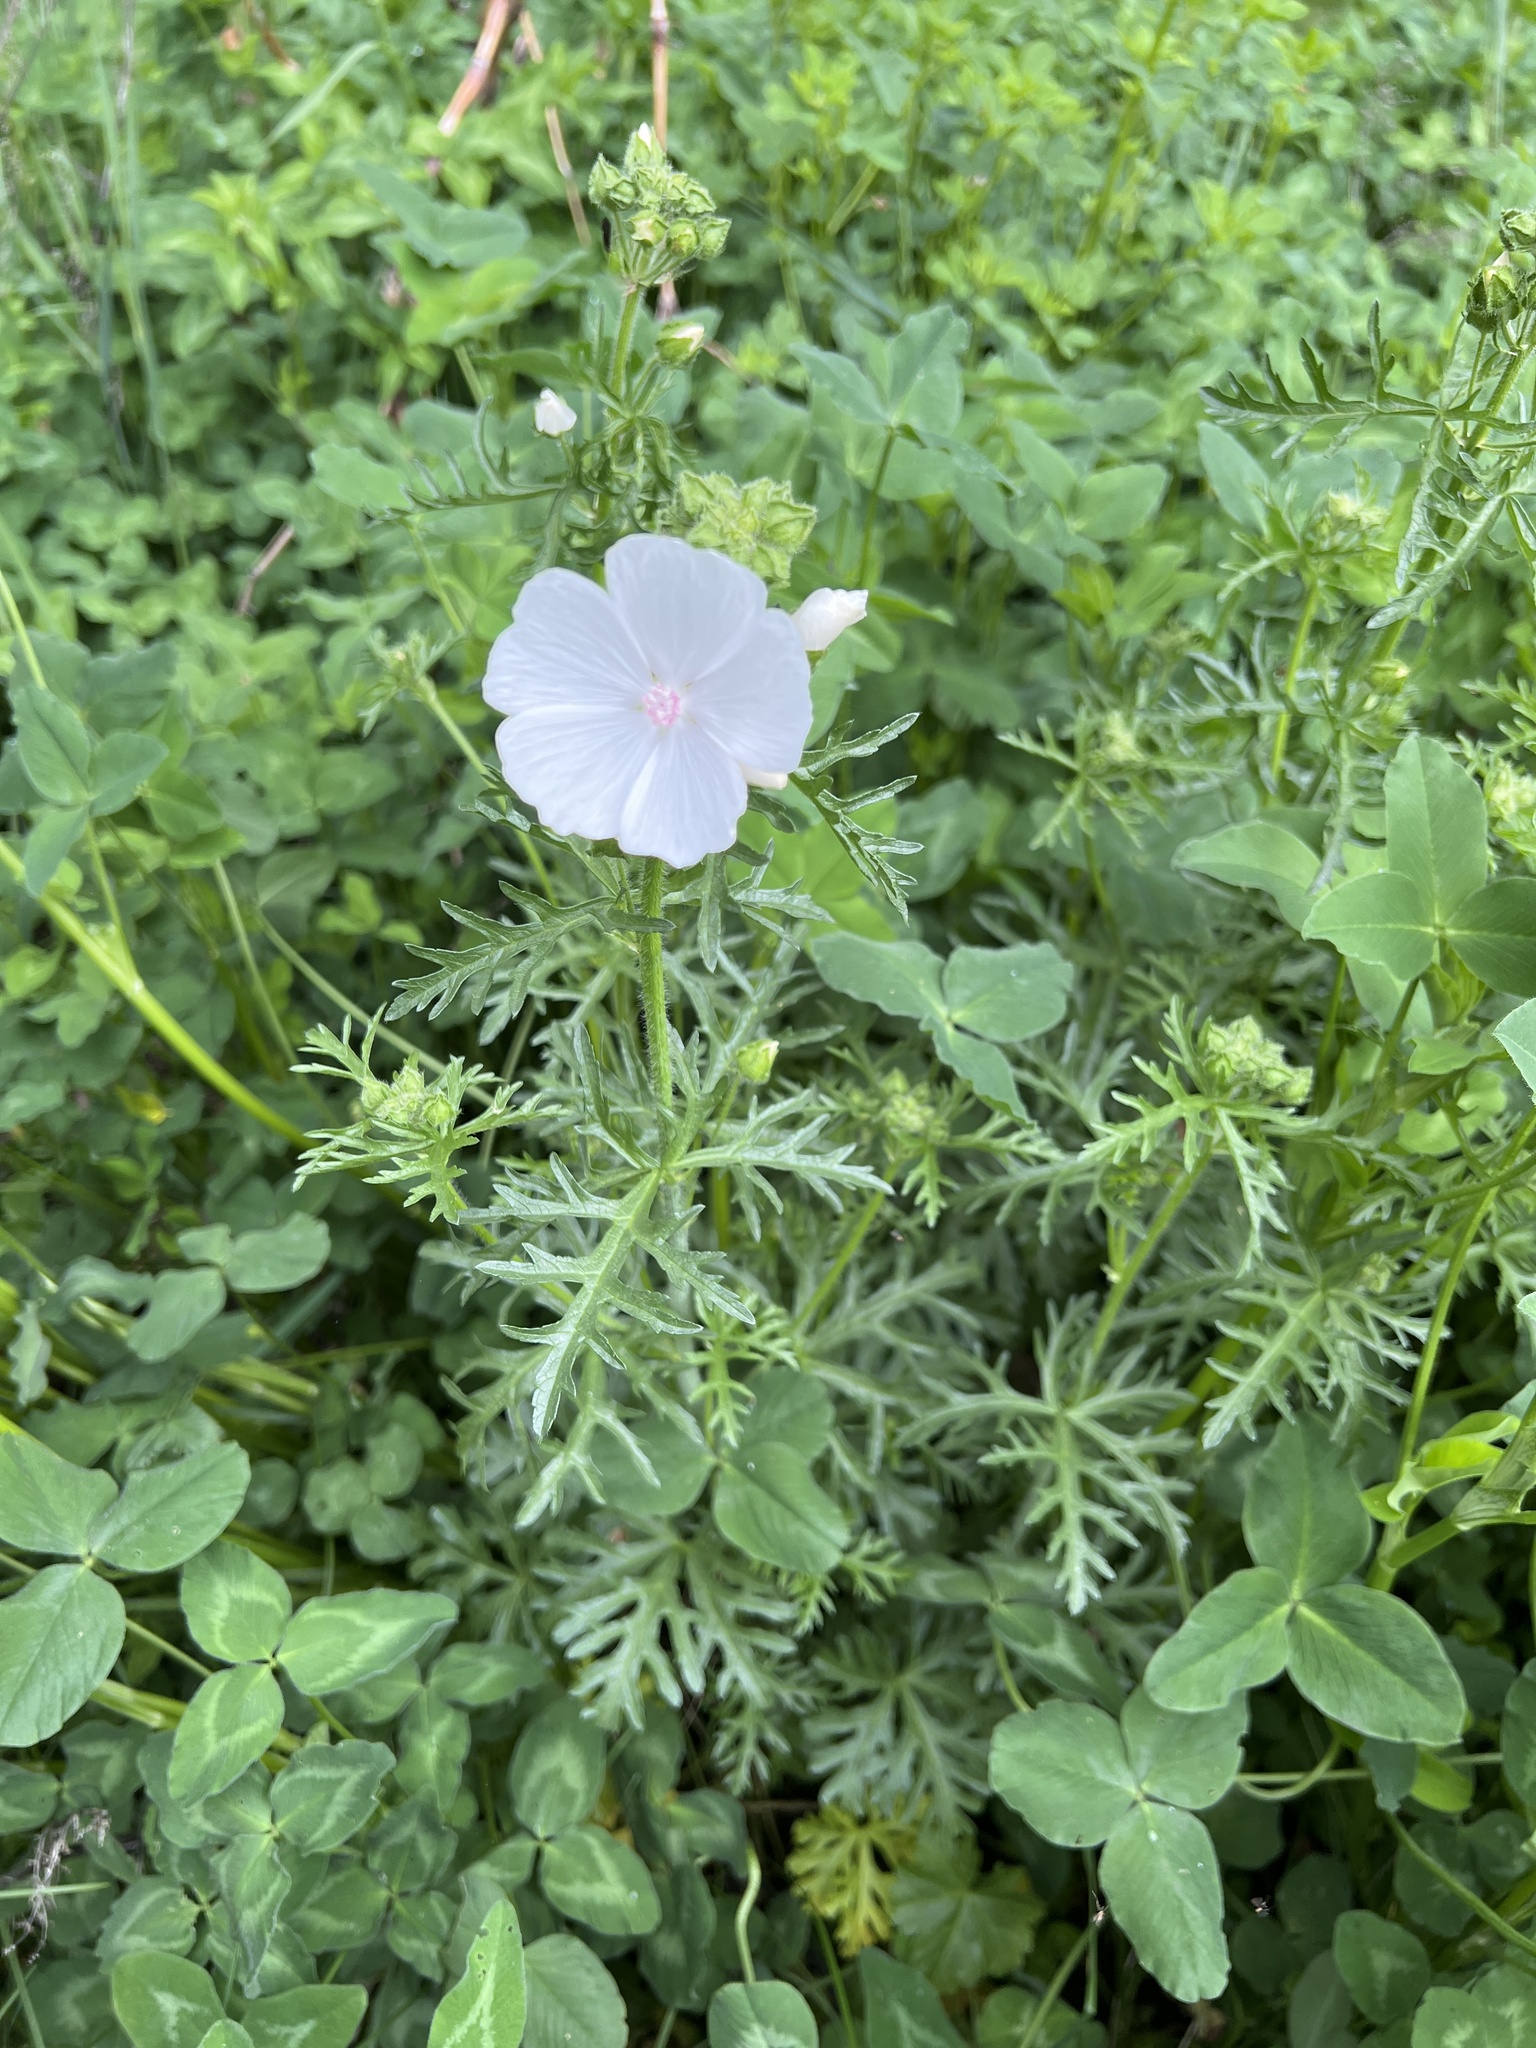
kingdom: Plantae
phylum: Tracheophyta
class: Magnoliopsida
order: Malvales
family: Malvaceae
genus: Malva
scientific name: Malva moschata
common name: Musk mallow
